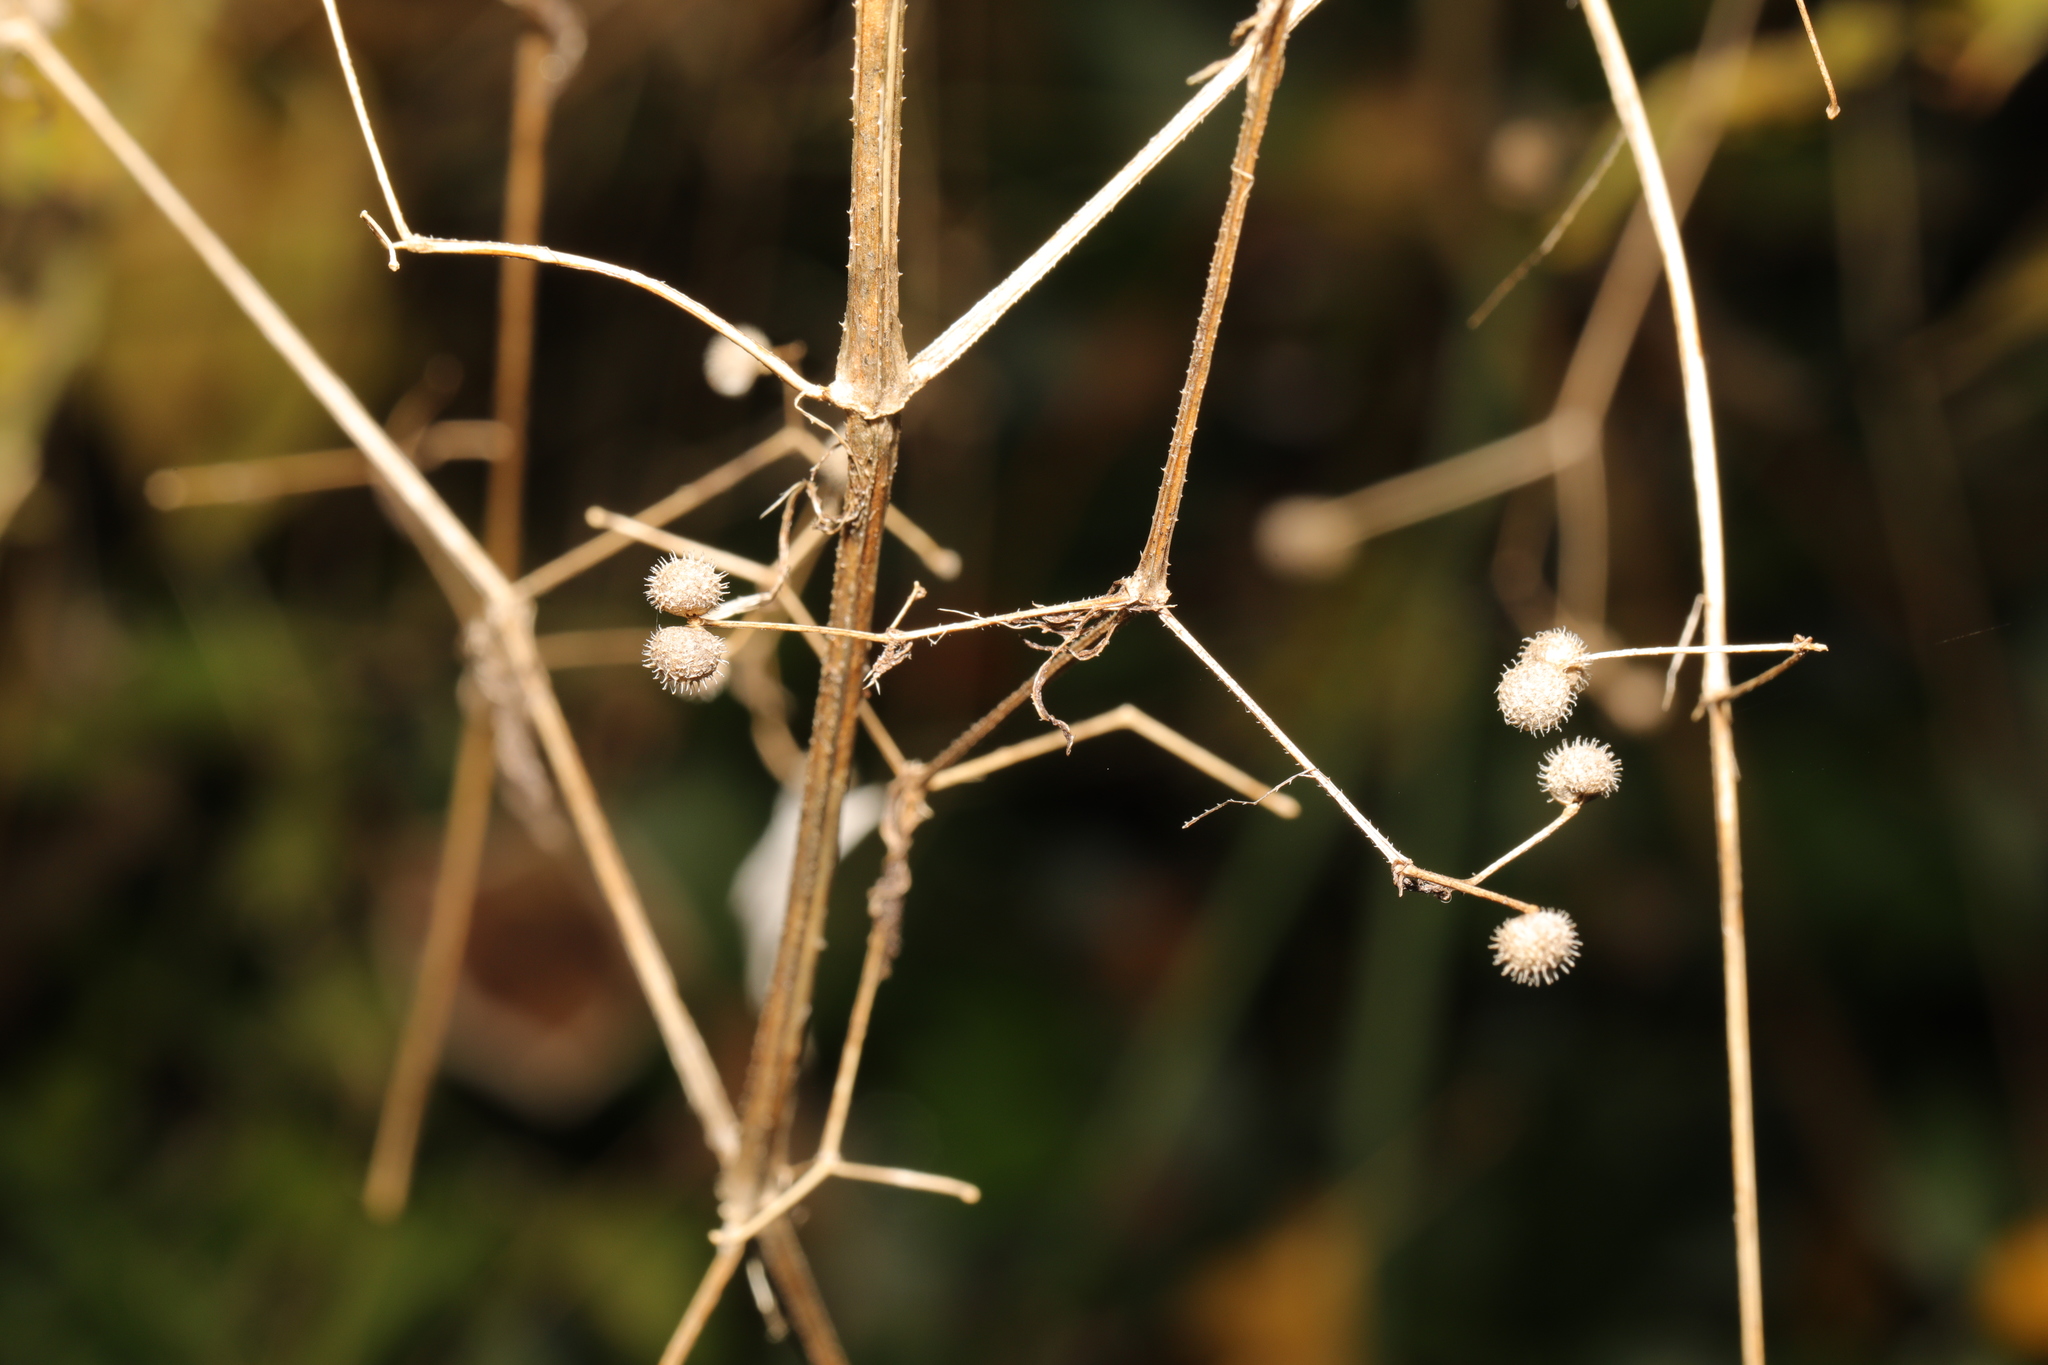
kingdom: Plantae
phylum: Tracheophyta
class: Magnoliopsida
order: Gentianales
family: Rubiaceae
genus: Galium
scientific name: Galium aparine
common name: Cleavers
